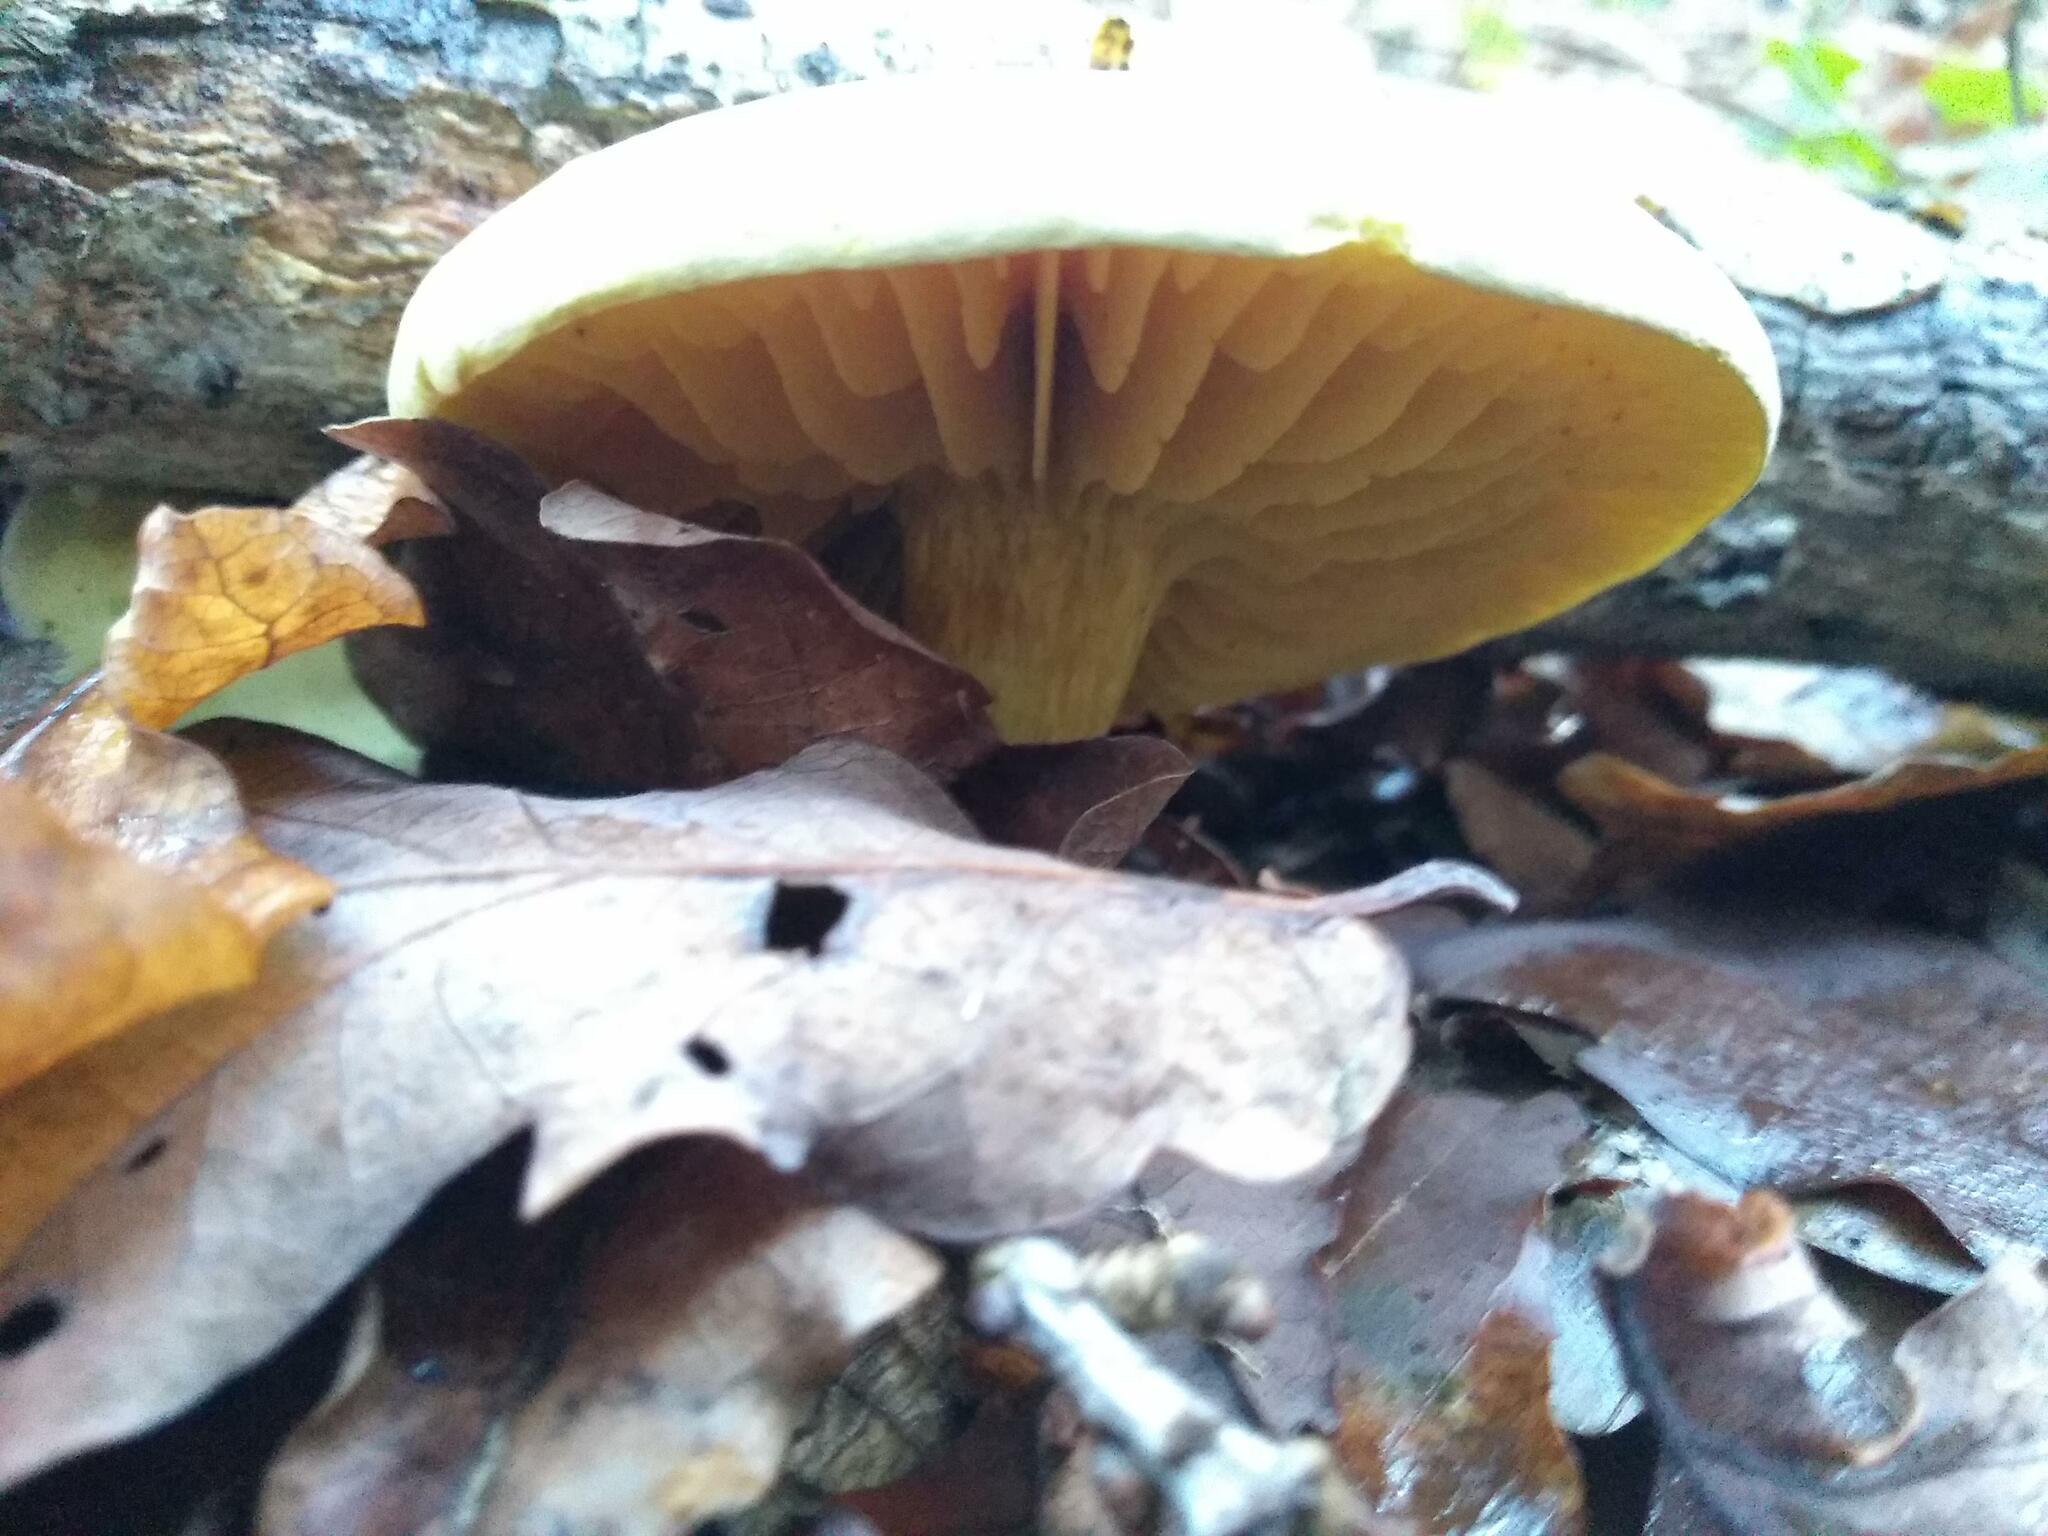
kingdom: Fungi
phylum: Basidiomycota
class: Agaricomycetes
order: Agaricales
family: Tricholomataceae
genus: Tricholoma
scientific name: Tricholoma sulphureum
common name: Stinky knight
